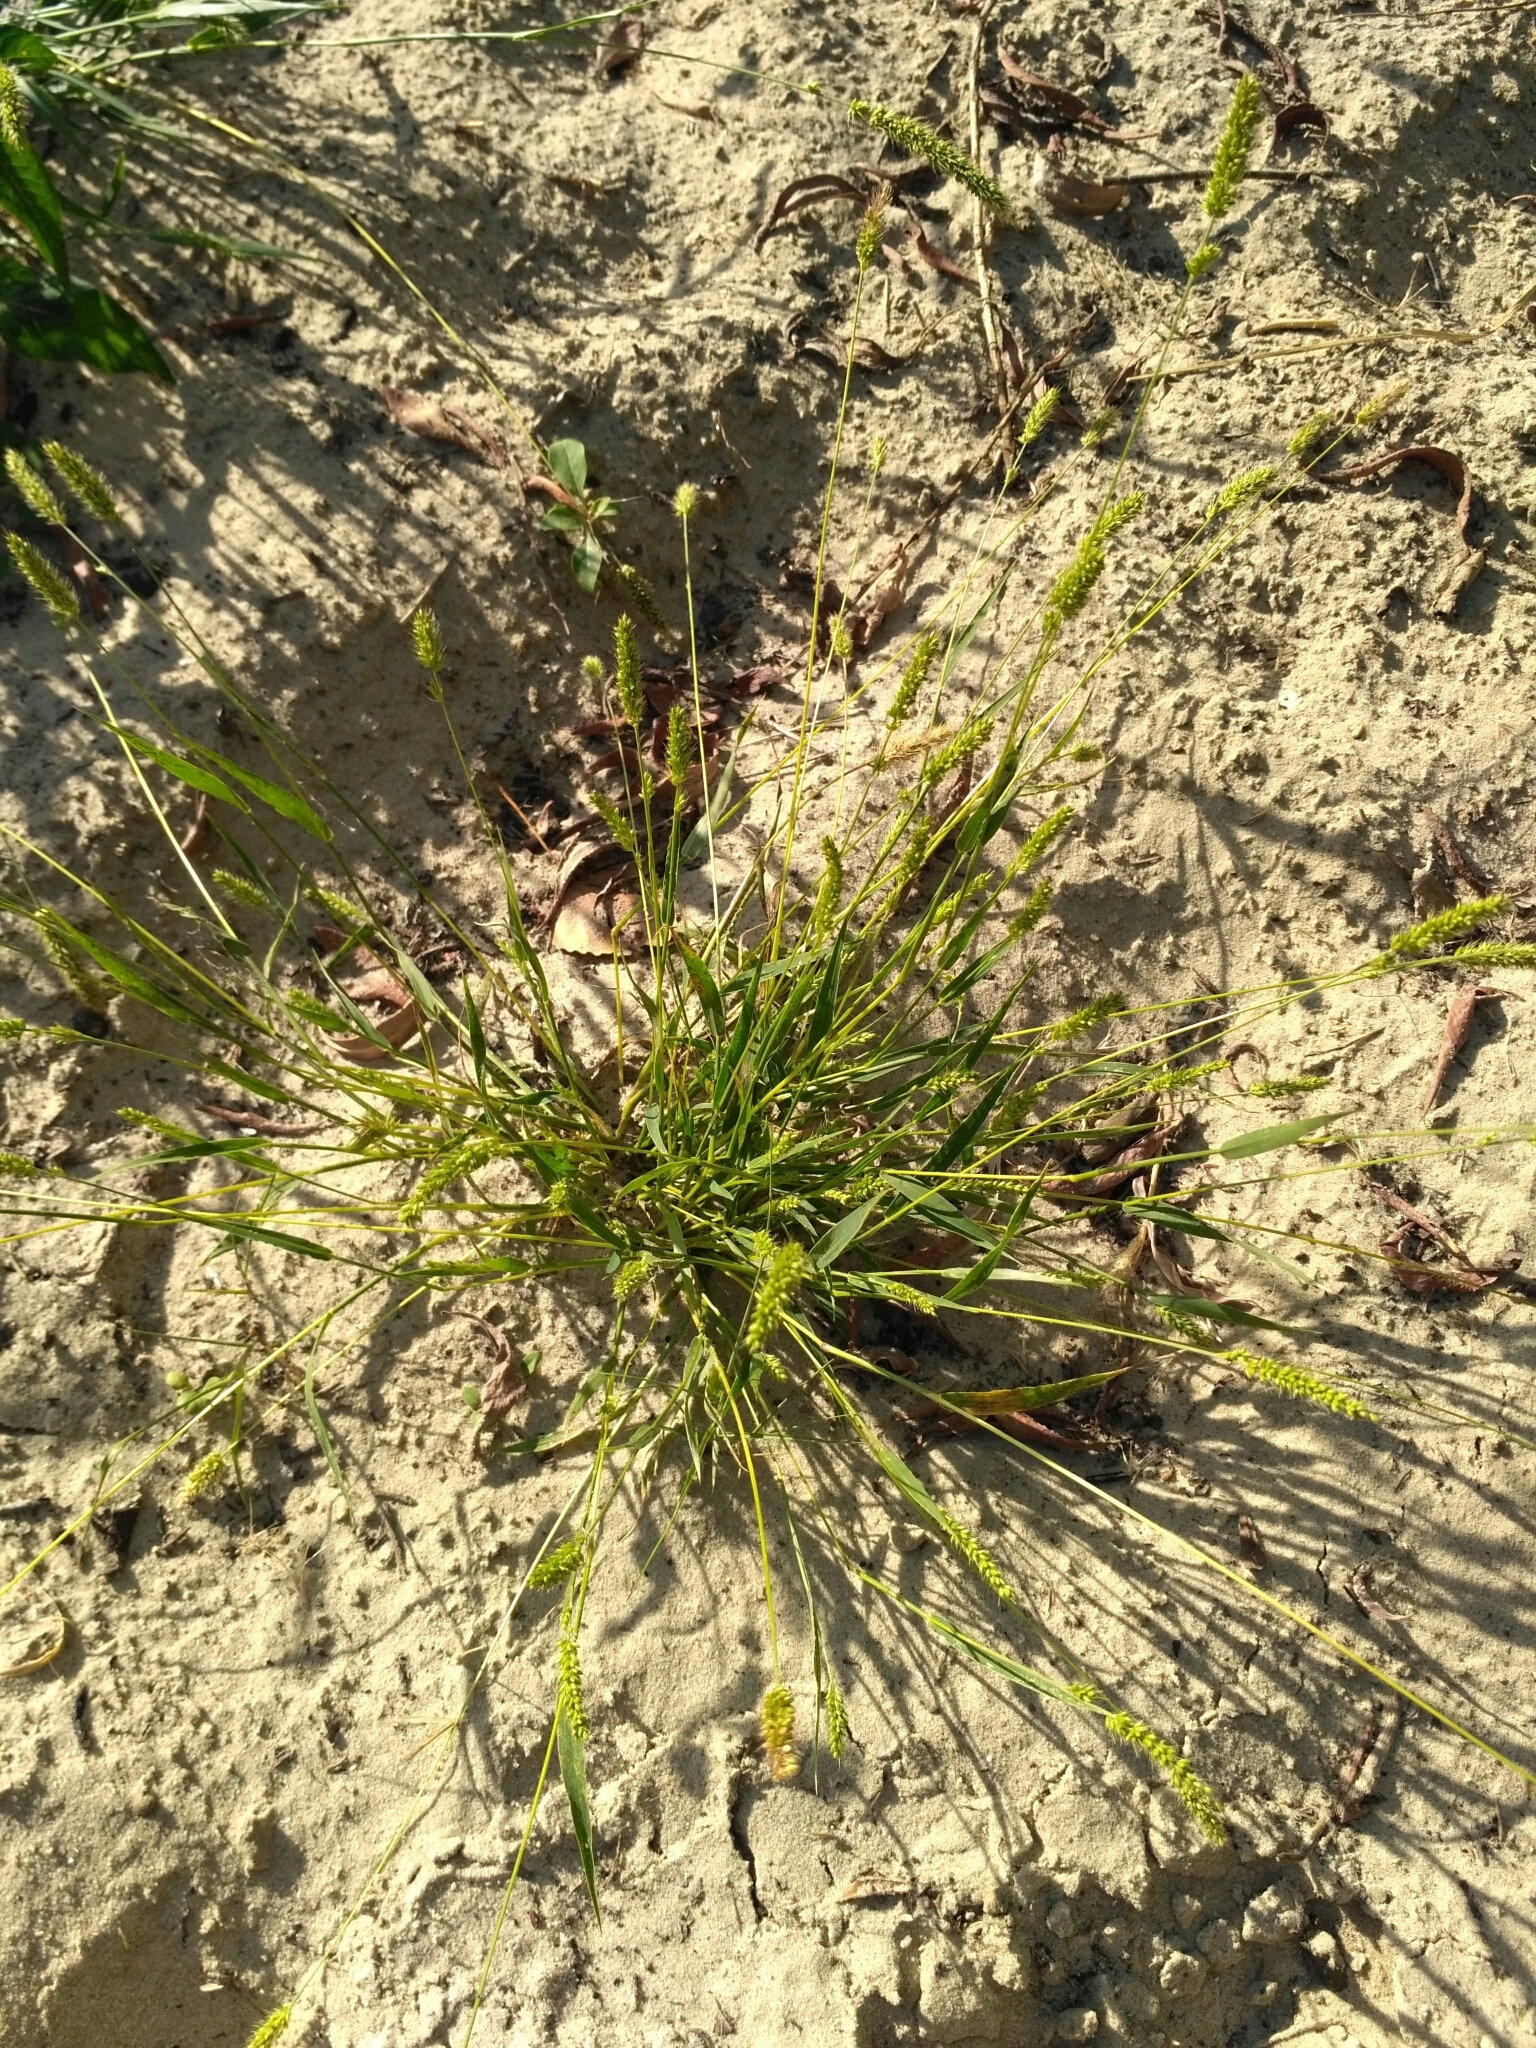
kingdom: Plantae
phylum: Tracheophyta
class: Liliopsida
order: Poales
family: Poaceae
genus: Setaria
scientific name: Setaria viridis
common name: Green bristlegrass
